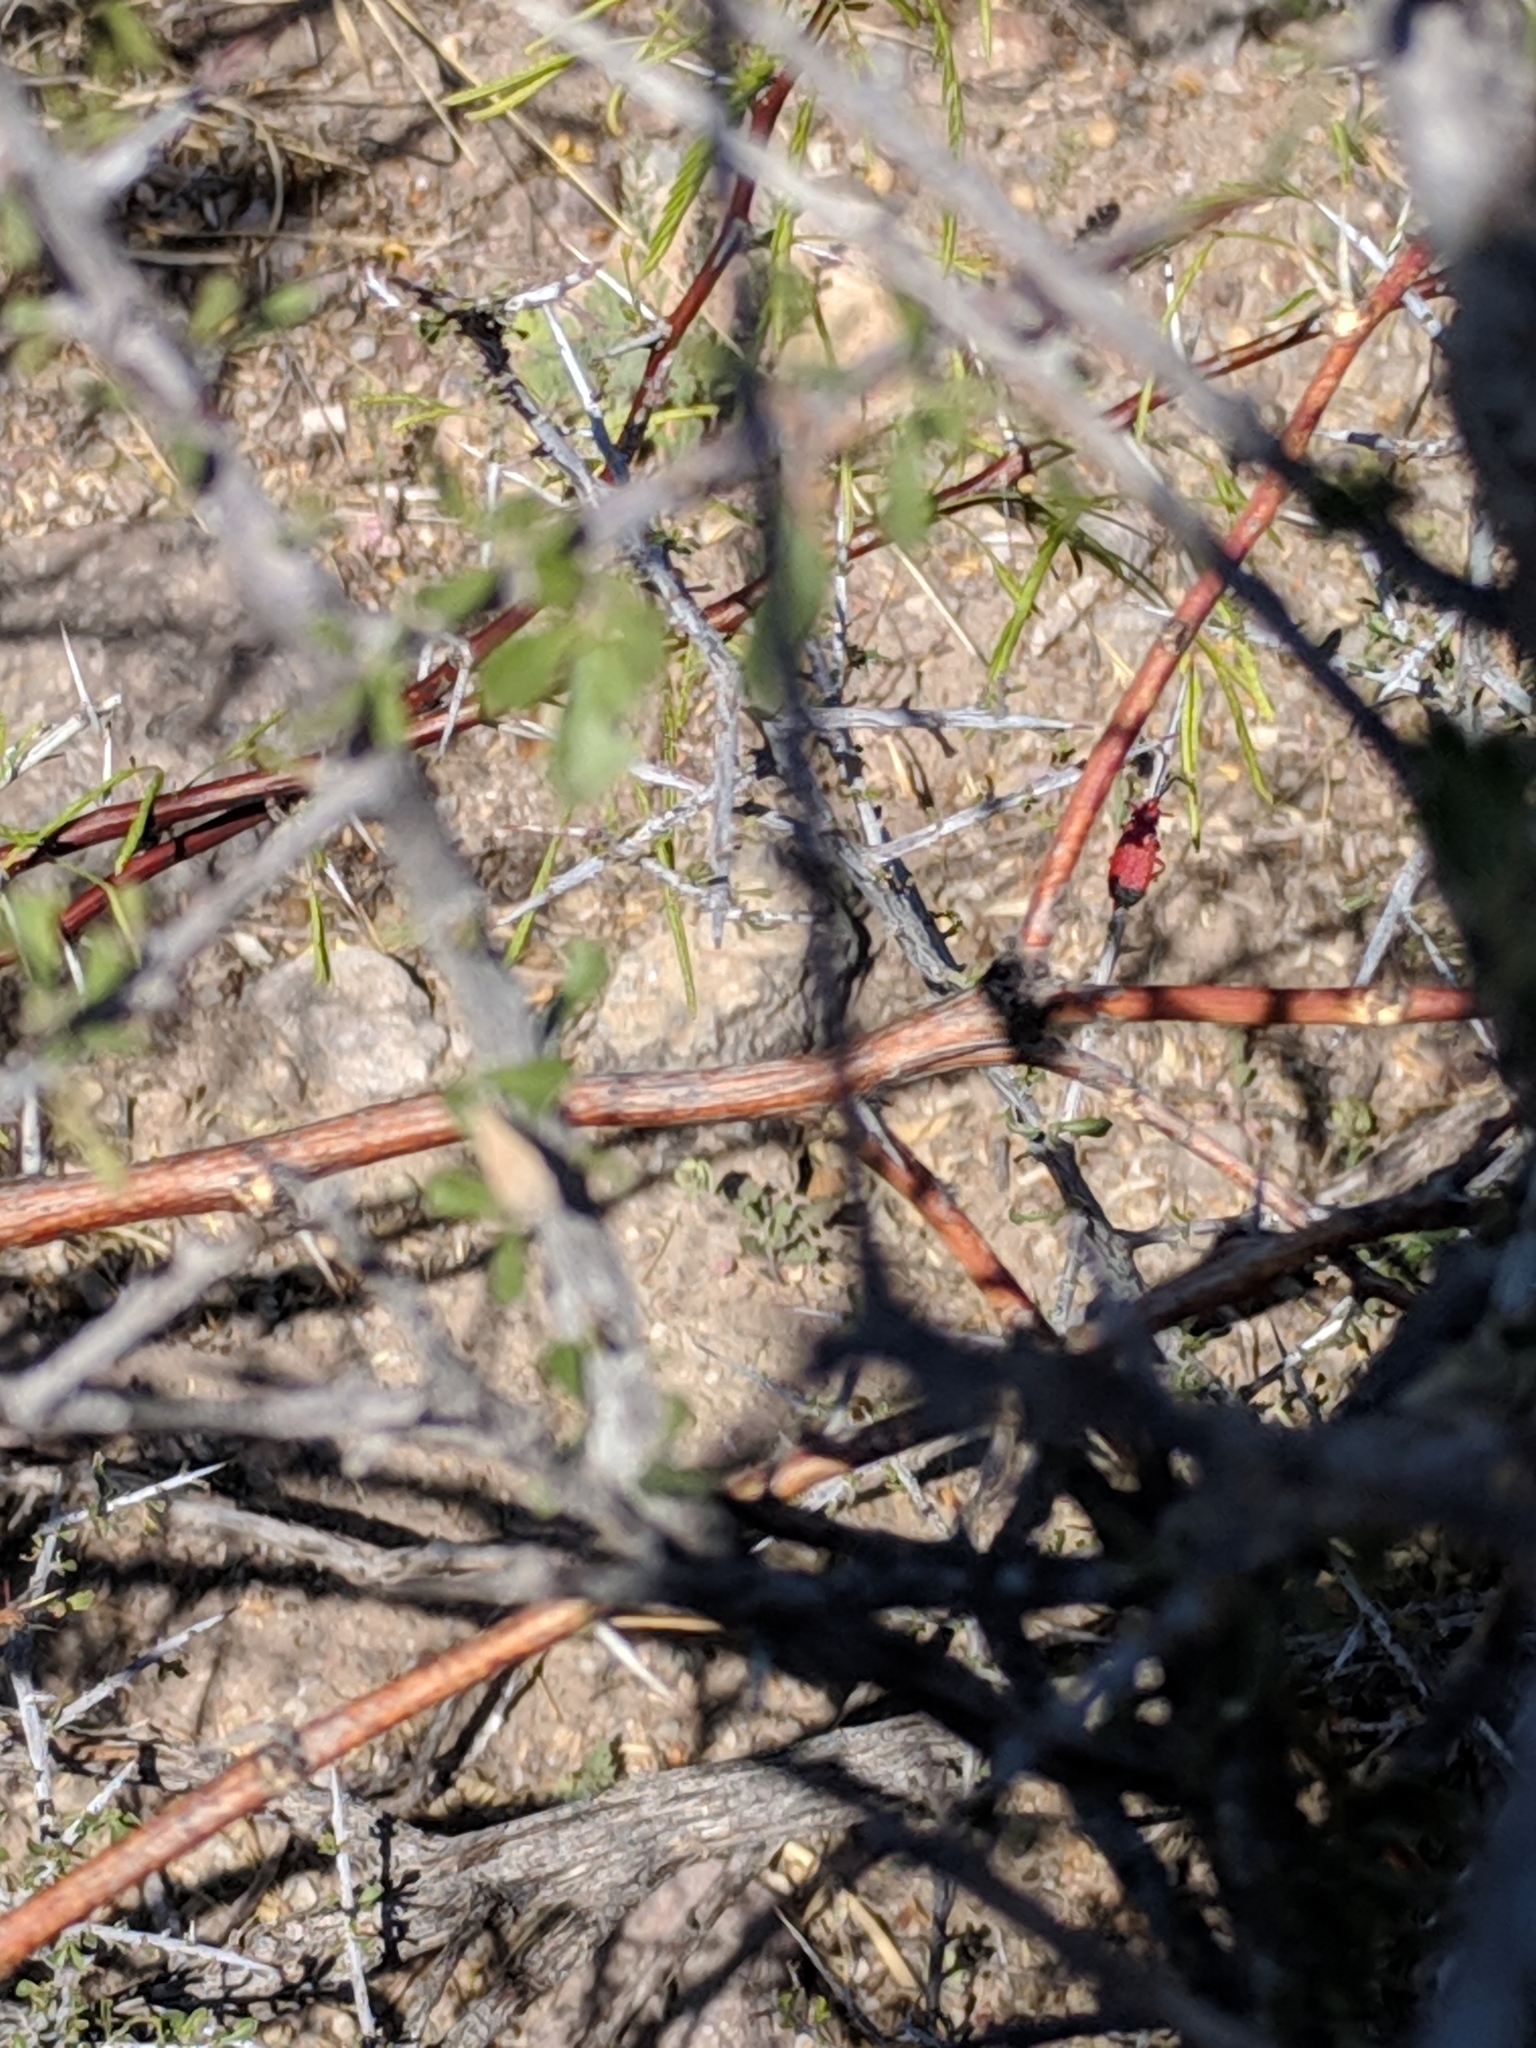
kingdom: Animalia
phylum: Arthropoda
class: Insecta
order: Coleoptera
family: Lycidae
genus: Lycus
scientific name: Lycus sanguineus
